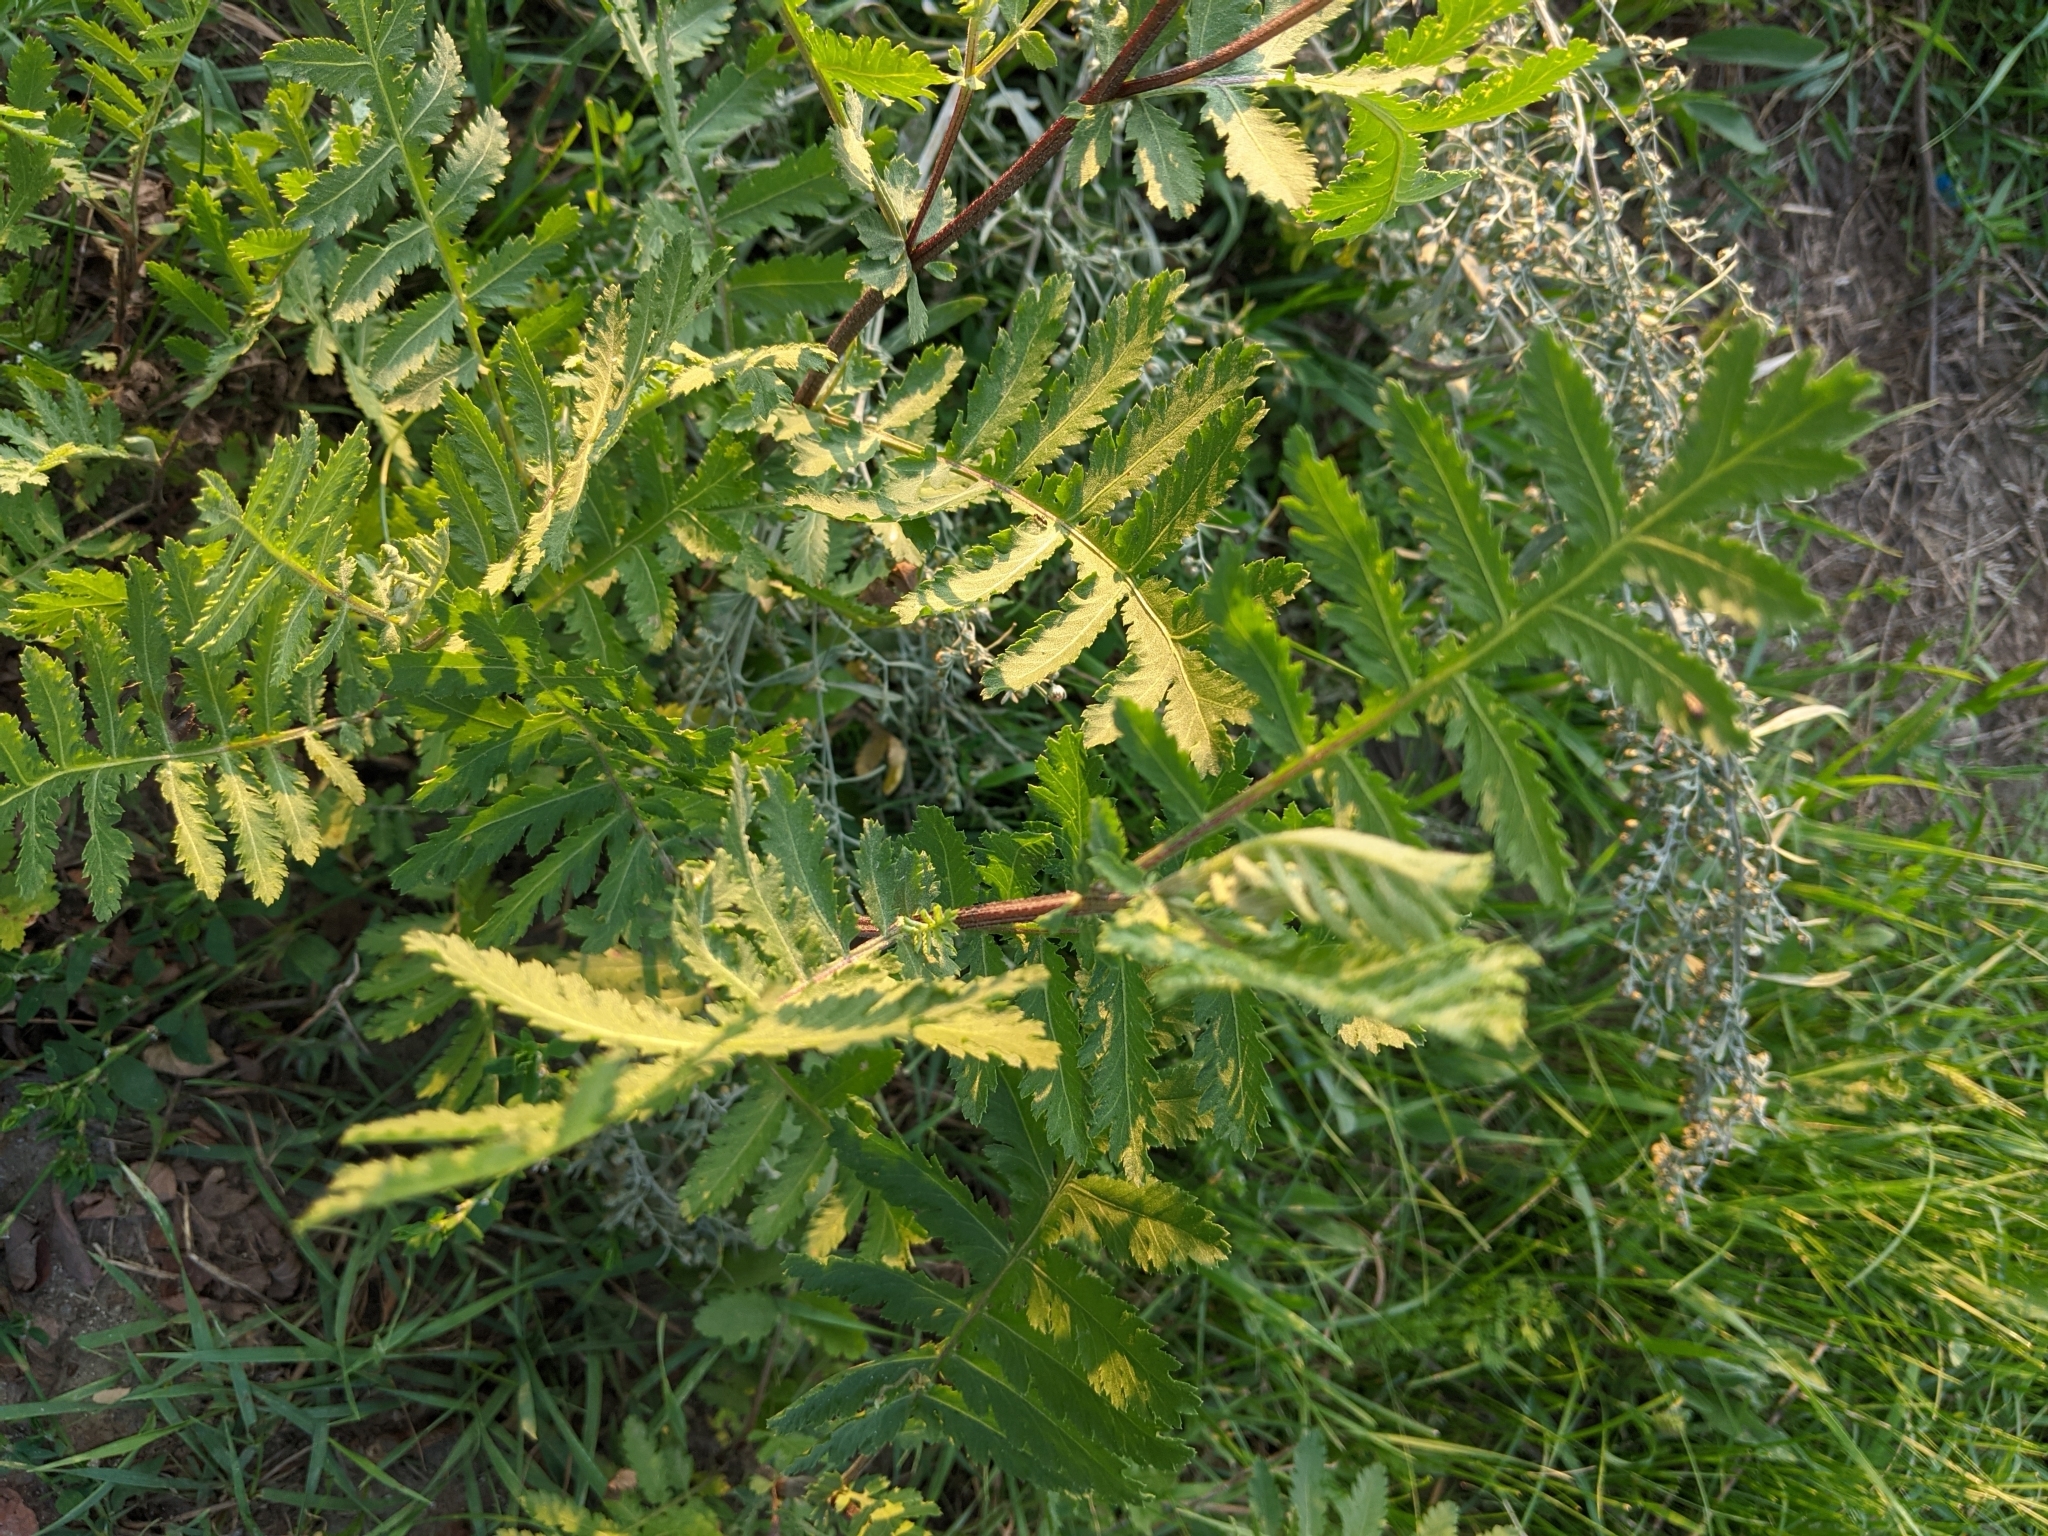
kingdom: Plantae
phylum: Tracheophyta
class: Magnoliopsida
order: Asterales
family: Asteraceae
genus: Tanacetum
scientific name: Tanacetum vulgare
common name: Common tansy
